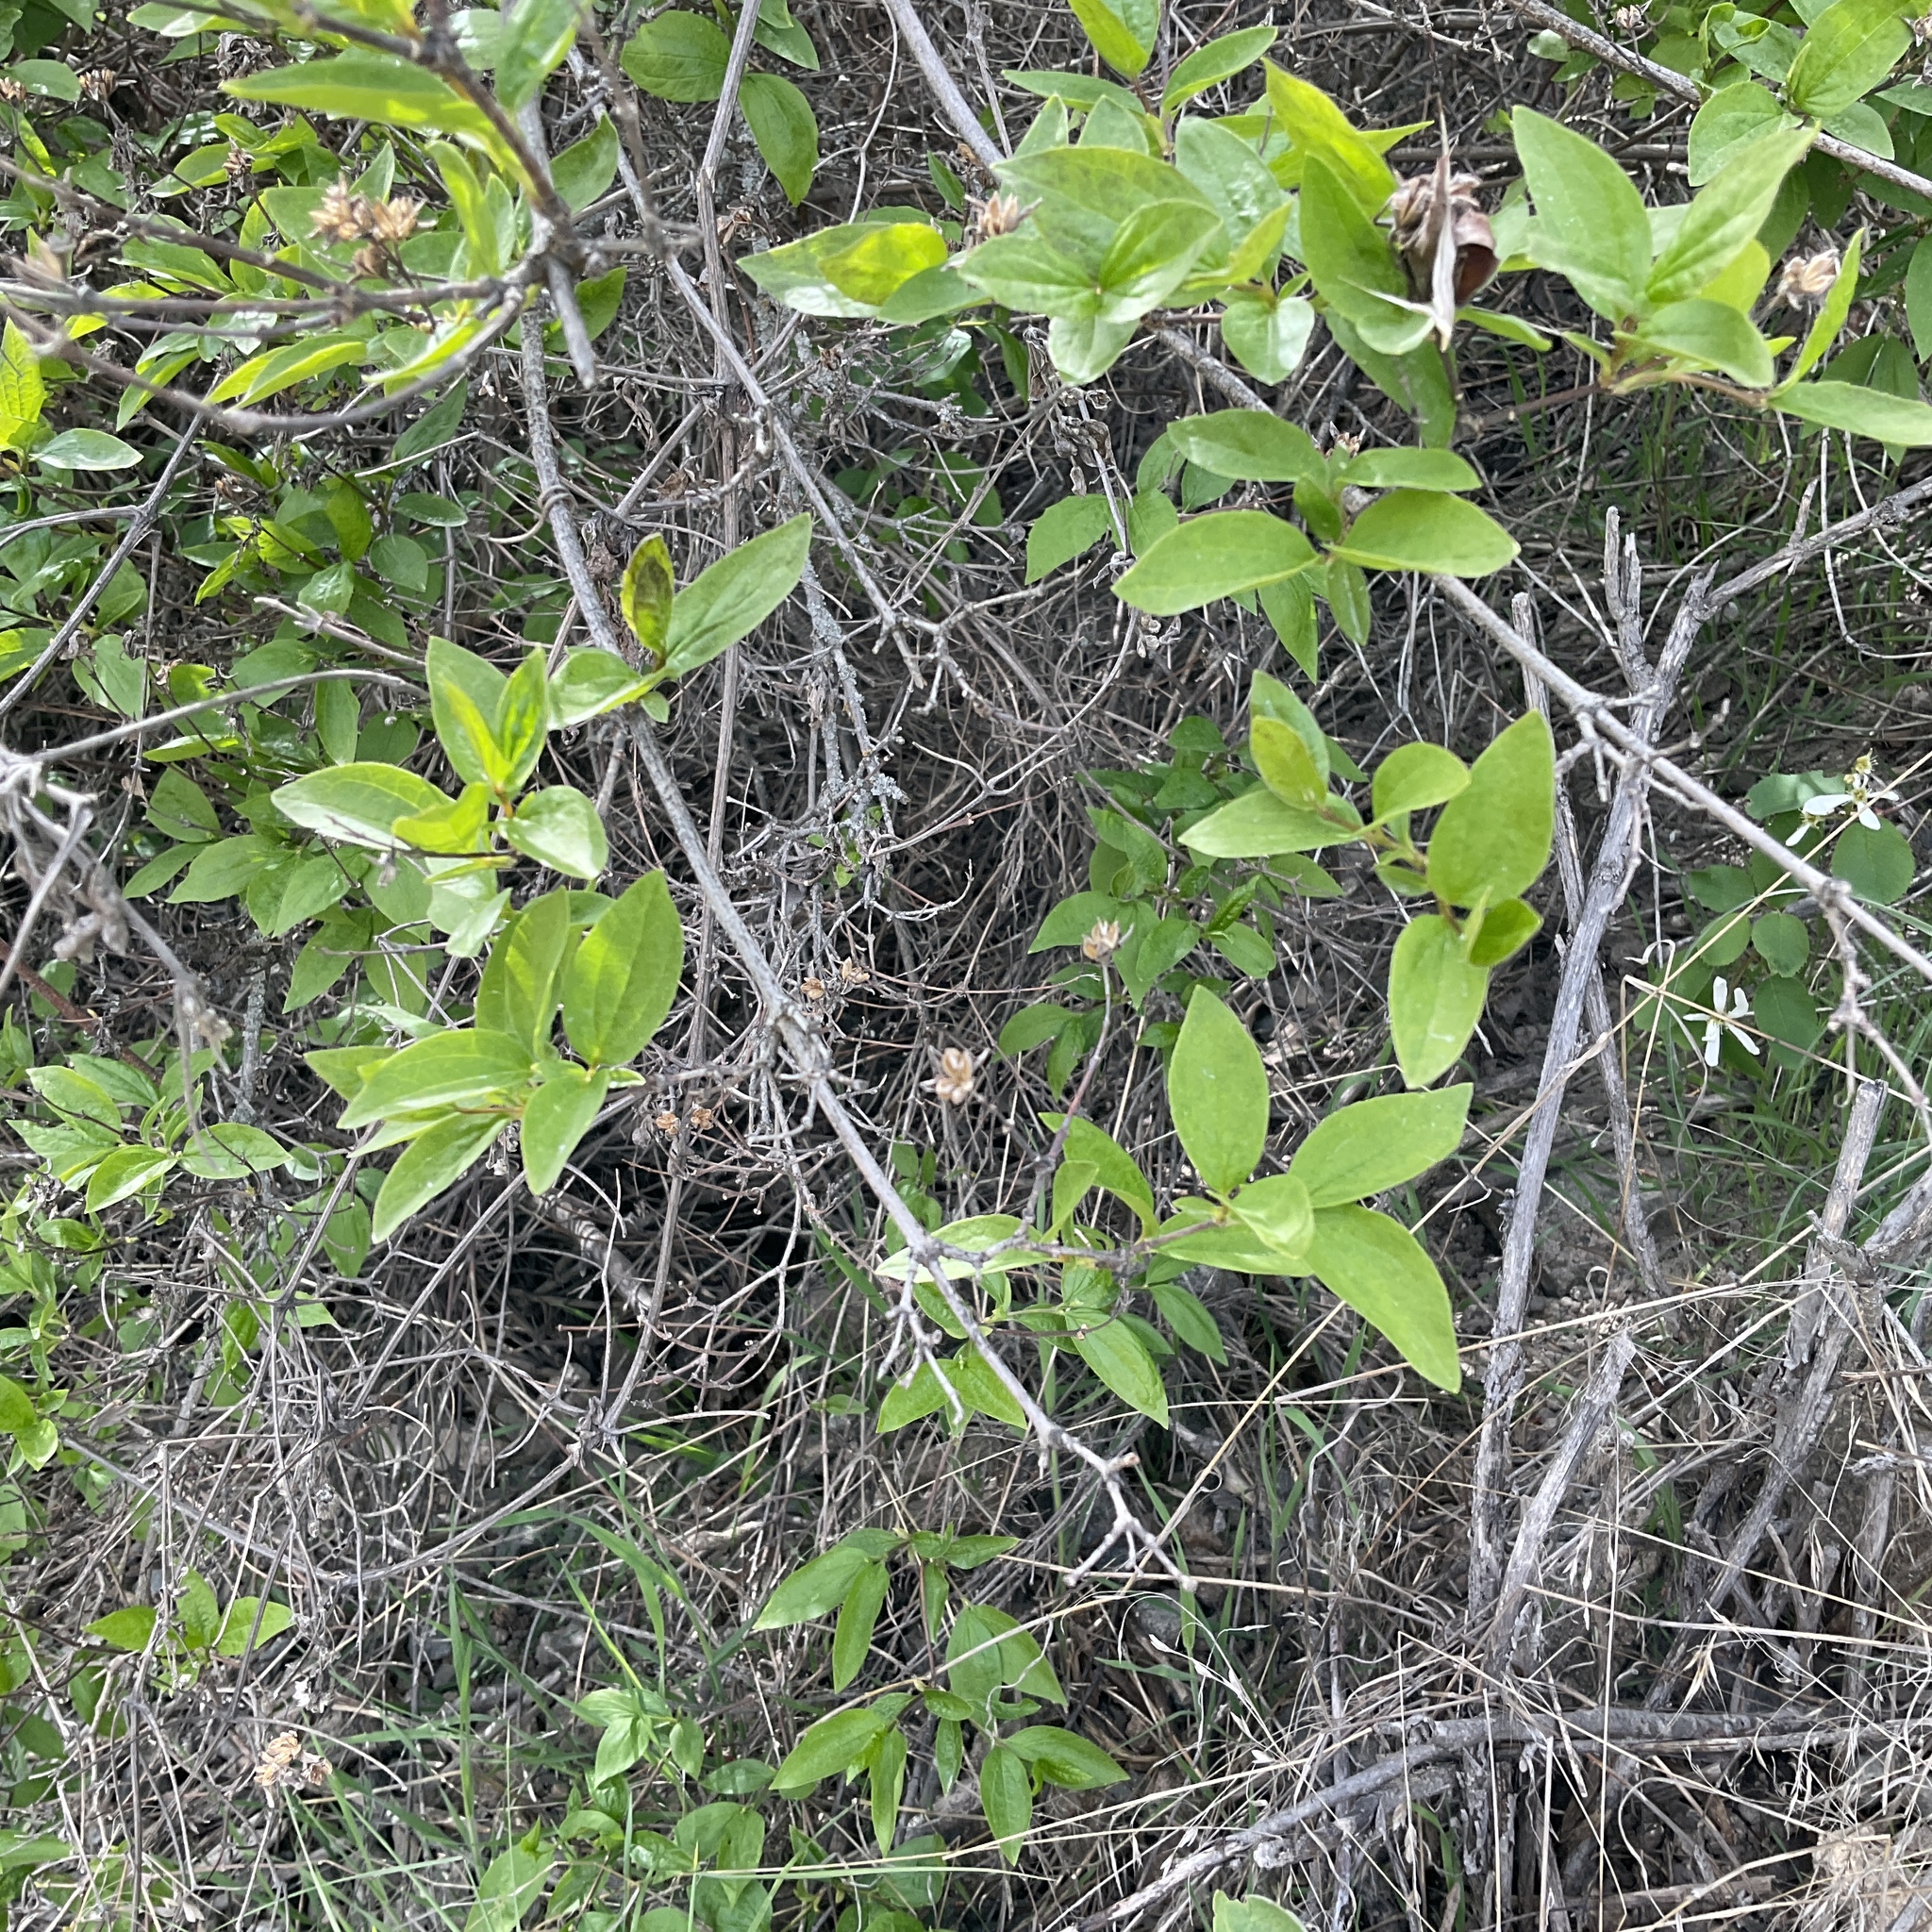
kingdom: Plantae
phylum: Tracheophyta
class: Magnoliopsida
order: Cornales
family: Hydrangeaceae
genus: Philadelphus
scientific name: Philadelphus lewisii
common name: Lewis's mock orange
